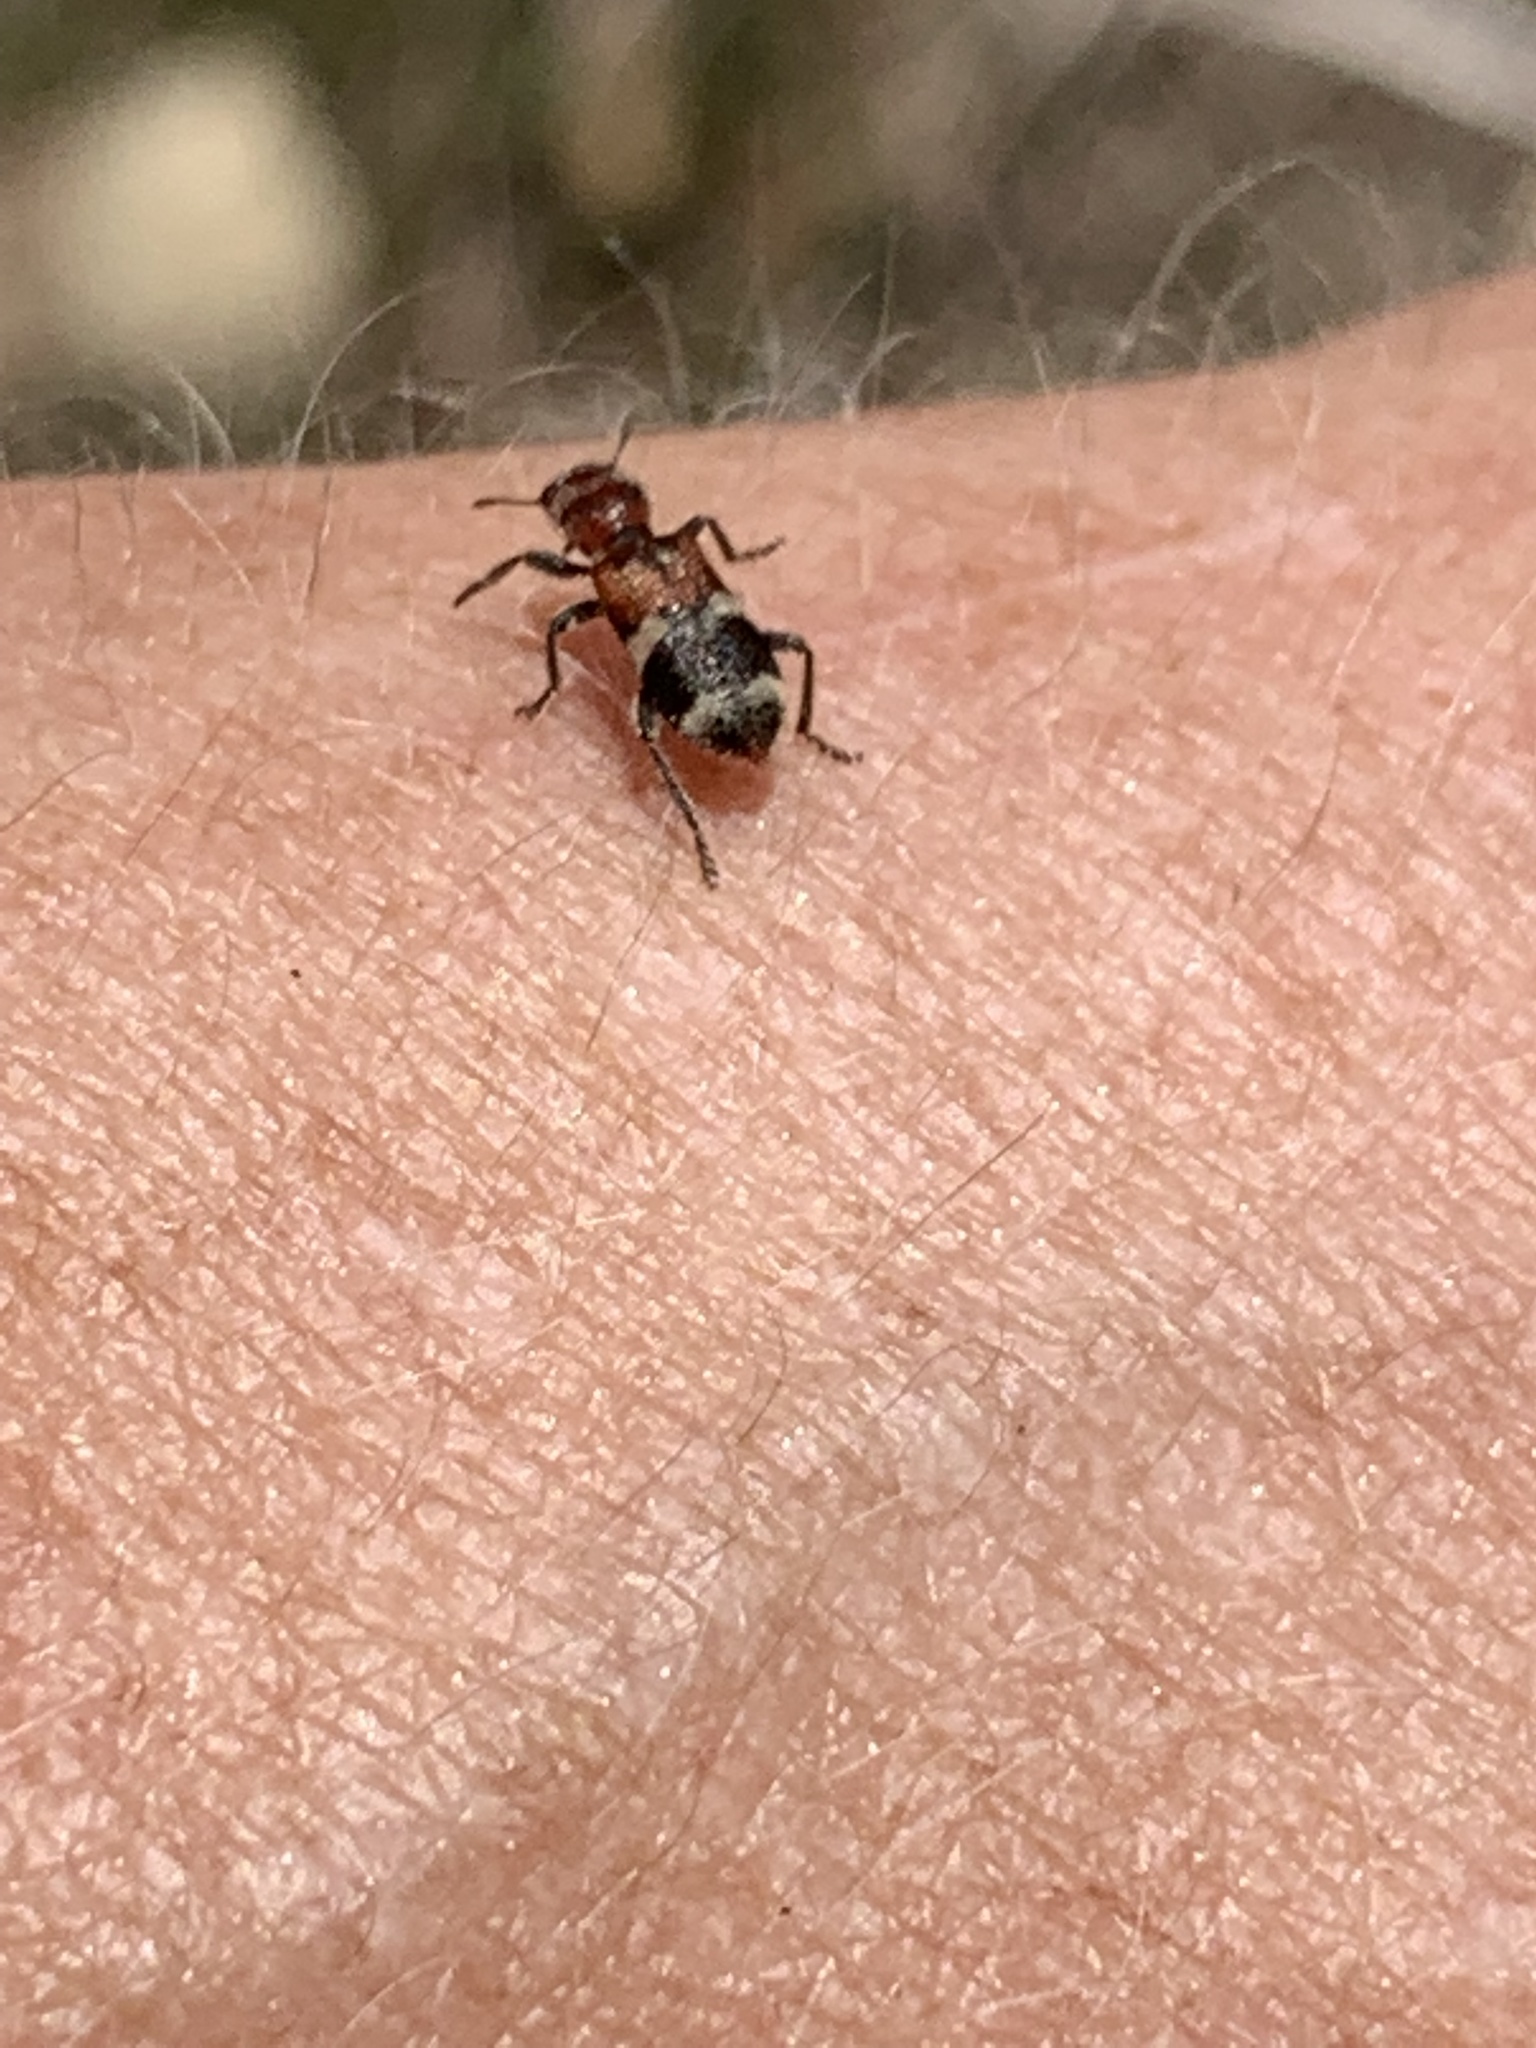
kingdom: Animalia
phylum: Arthropoda
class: Insecta
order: Coleoptera
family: Cleridae
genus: Enoclerus
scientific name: Enoclerus nigripes
